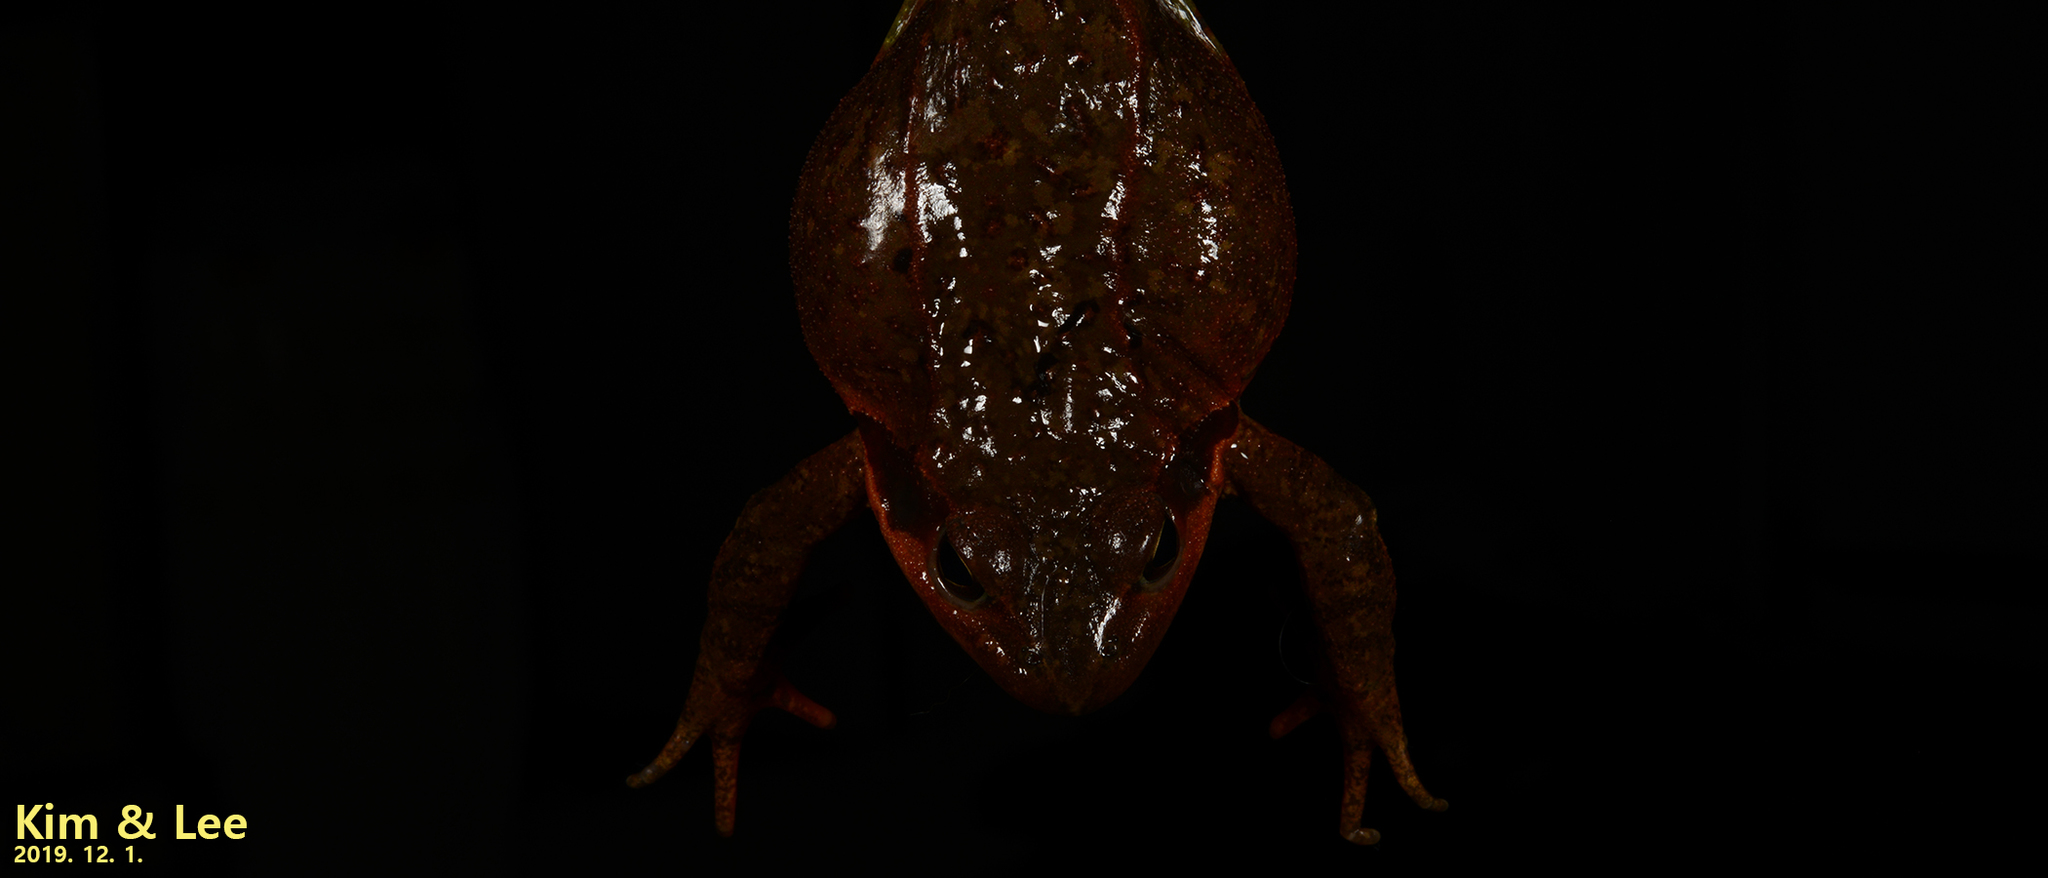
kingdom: Animalia
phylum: Chordata
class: Amphibia
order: Anura
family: Ranidae
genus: Rana
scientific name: Rana dybowskii
